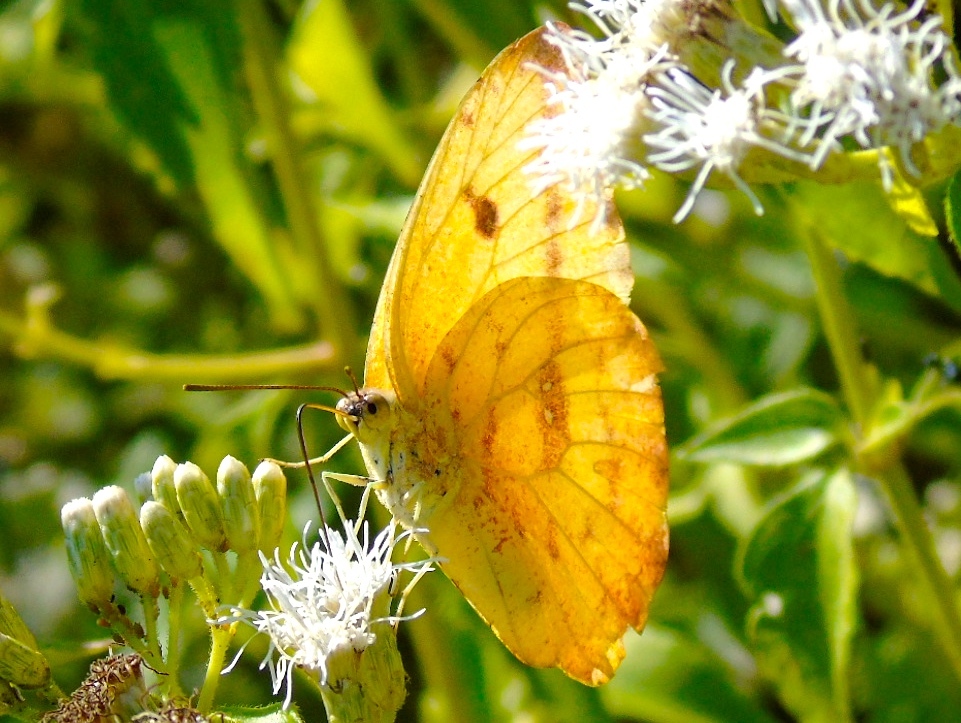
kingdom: Animalia
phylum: Arthropoda
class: Insecta
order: Lepidoptera
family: Pieridae
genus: Phoebis
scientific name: Phoebis
